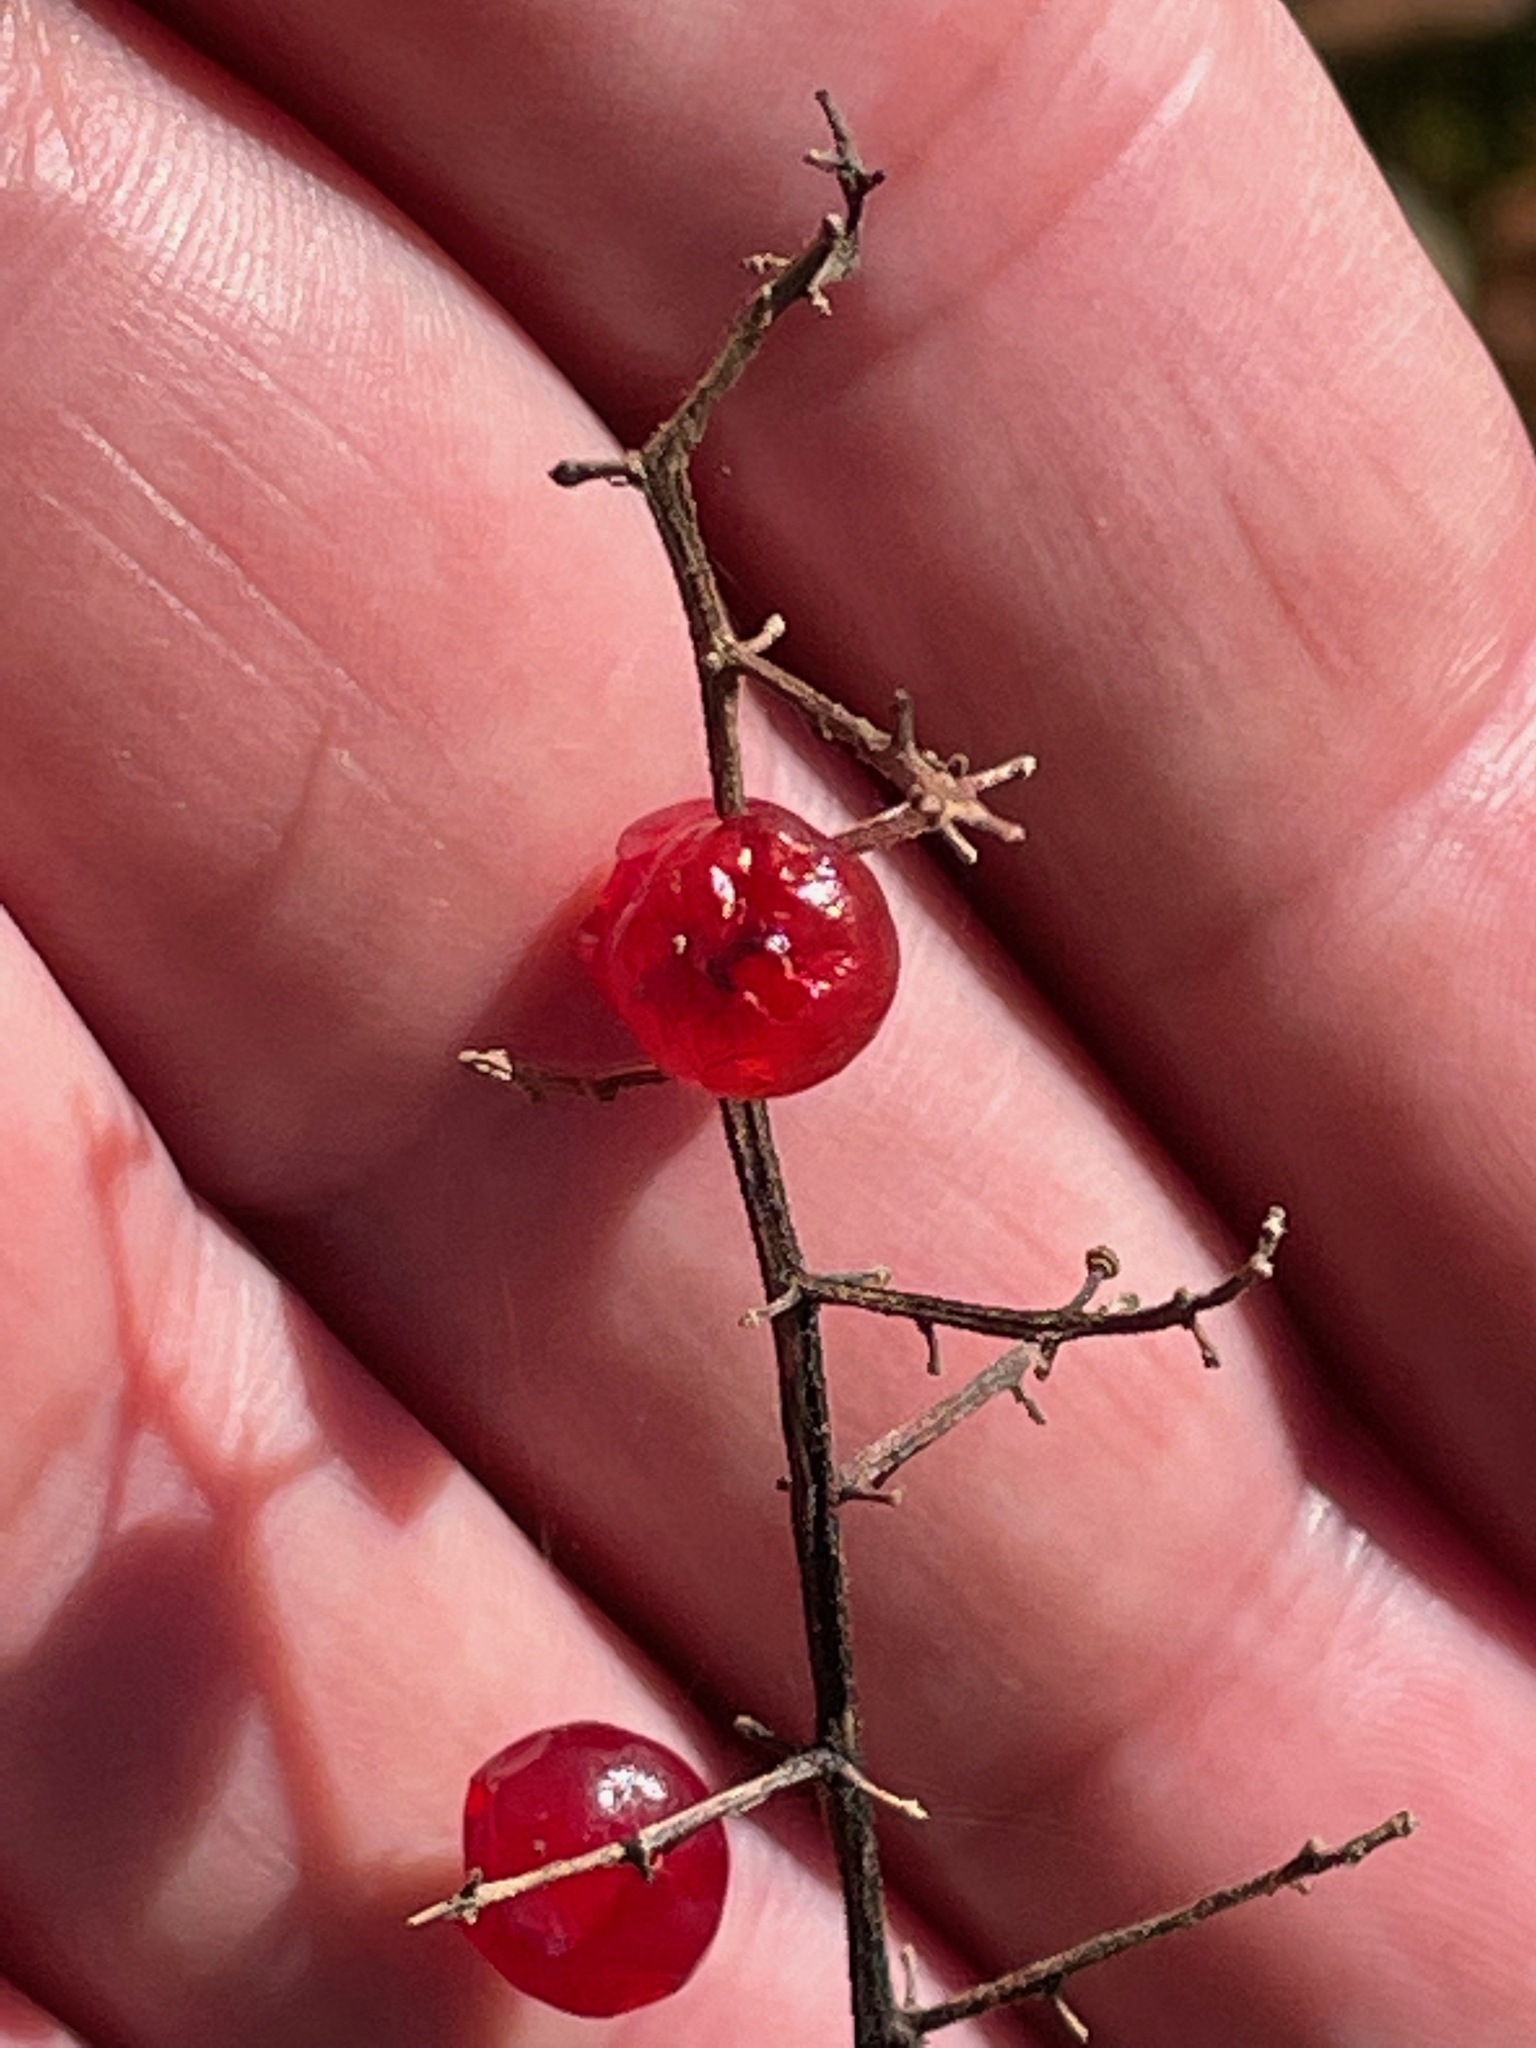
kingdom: Plantae
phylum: Tracheophyta
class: Liliopsida
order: Asparagales
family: Asparagaceae
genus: Maianthemum
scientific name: Maianthemum racemosum
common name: False spikenard
